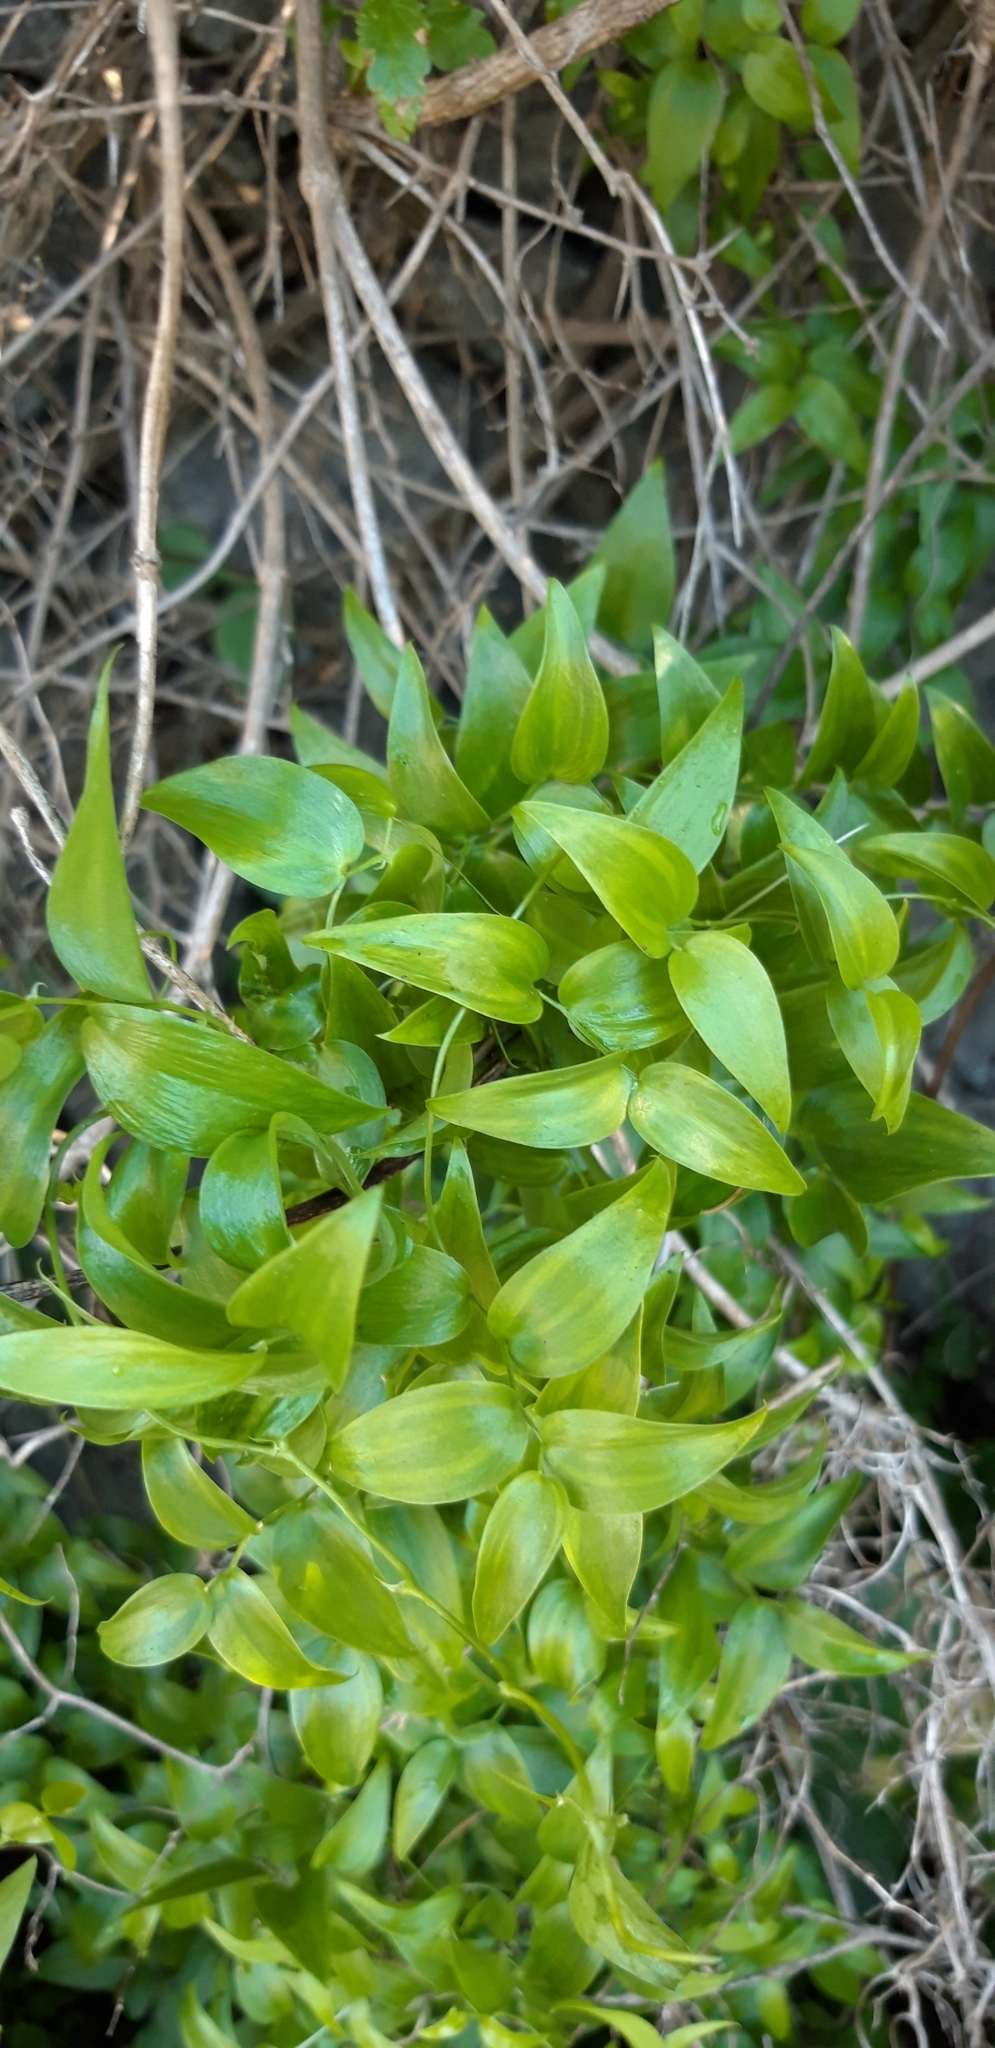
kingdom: Plantae
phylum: Tracheophyta
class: Liliopsida
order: Asparagales
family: Asparagaceae
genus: Asparagus
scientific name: Asparagus asparagoides
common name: African asparagus fern
